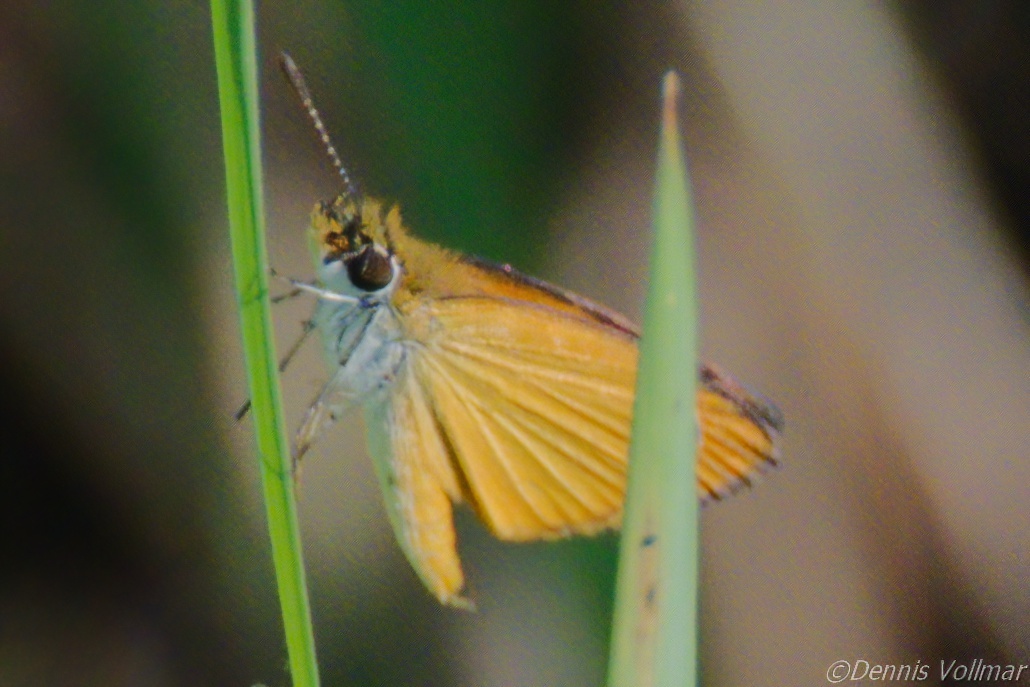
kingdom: Animalia
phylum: Arthropoda
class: Insecta
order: Lepidoptera
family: Hesperiidae
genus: Ancyloxypha
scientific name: Ancyloxypha numitor
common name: Least skipper
